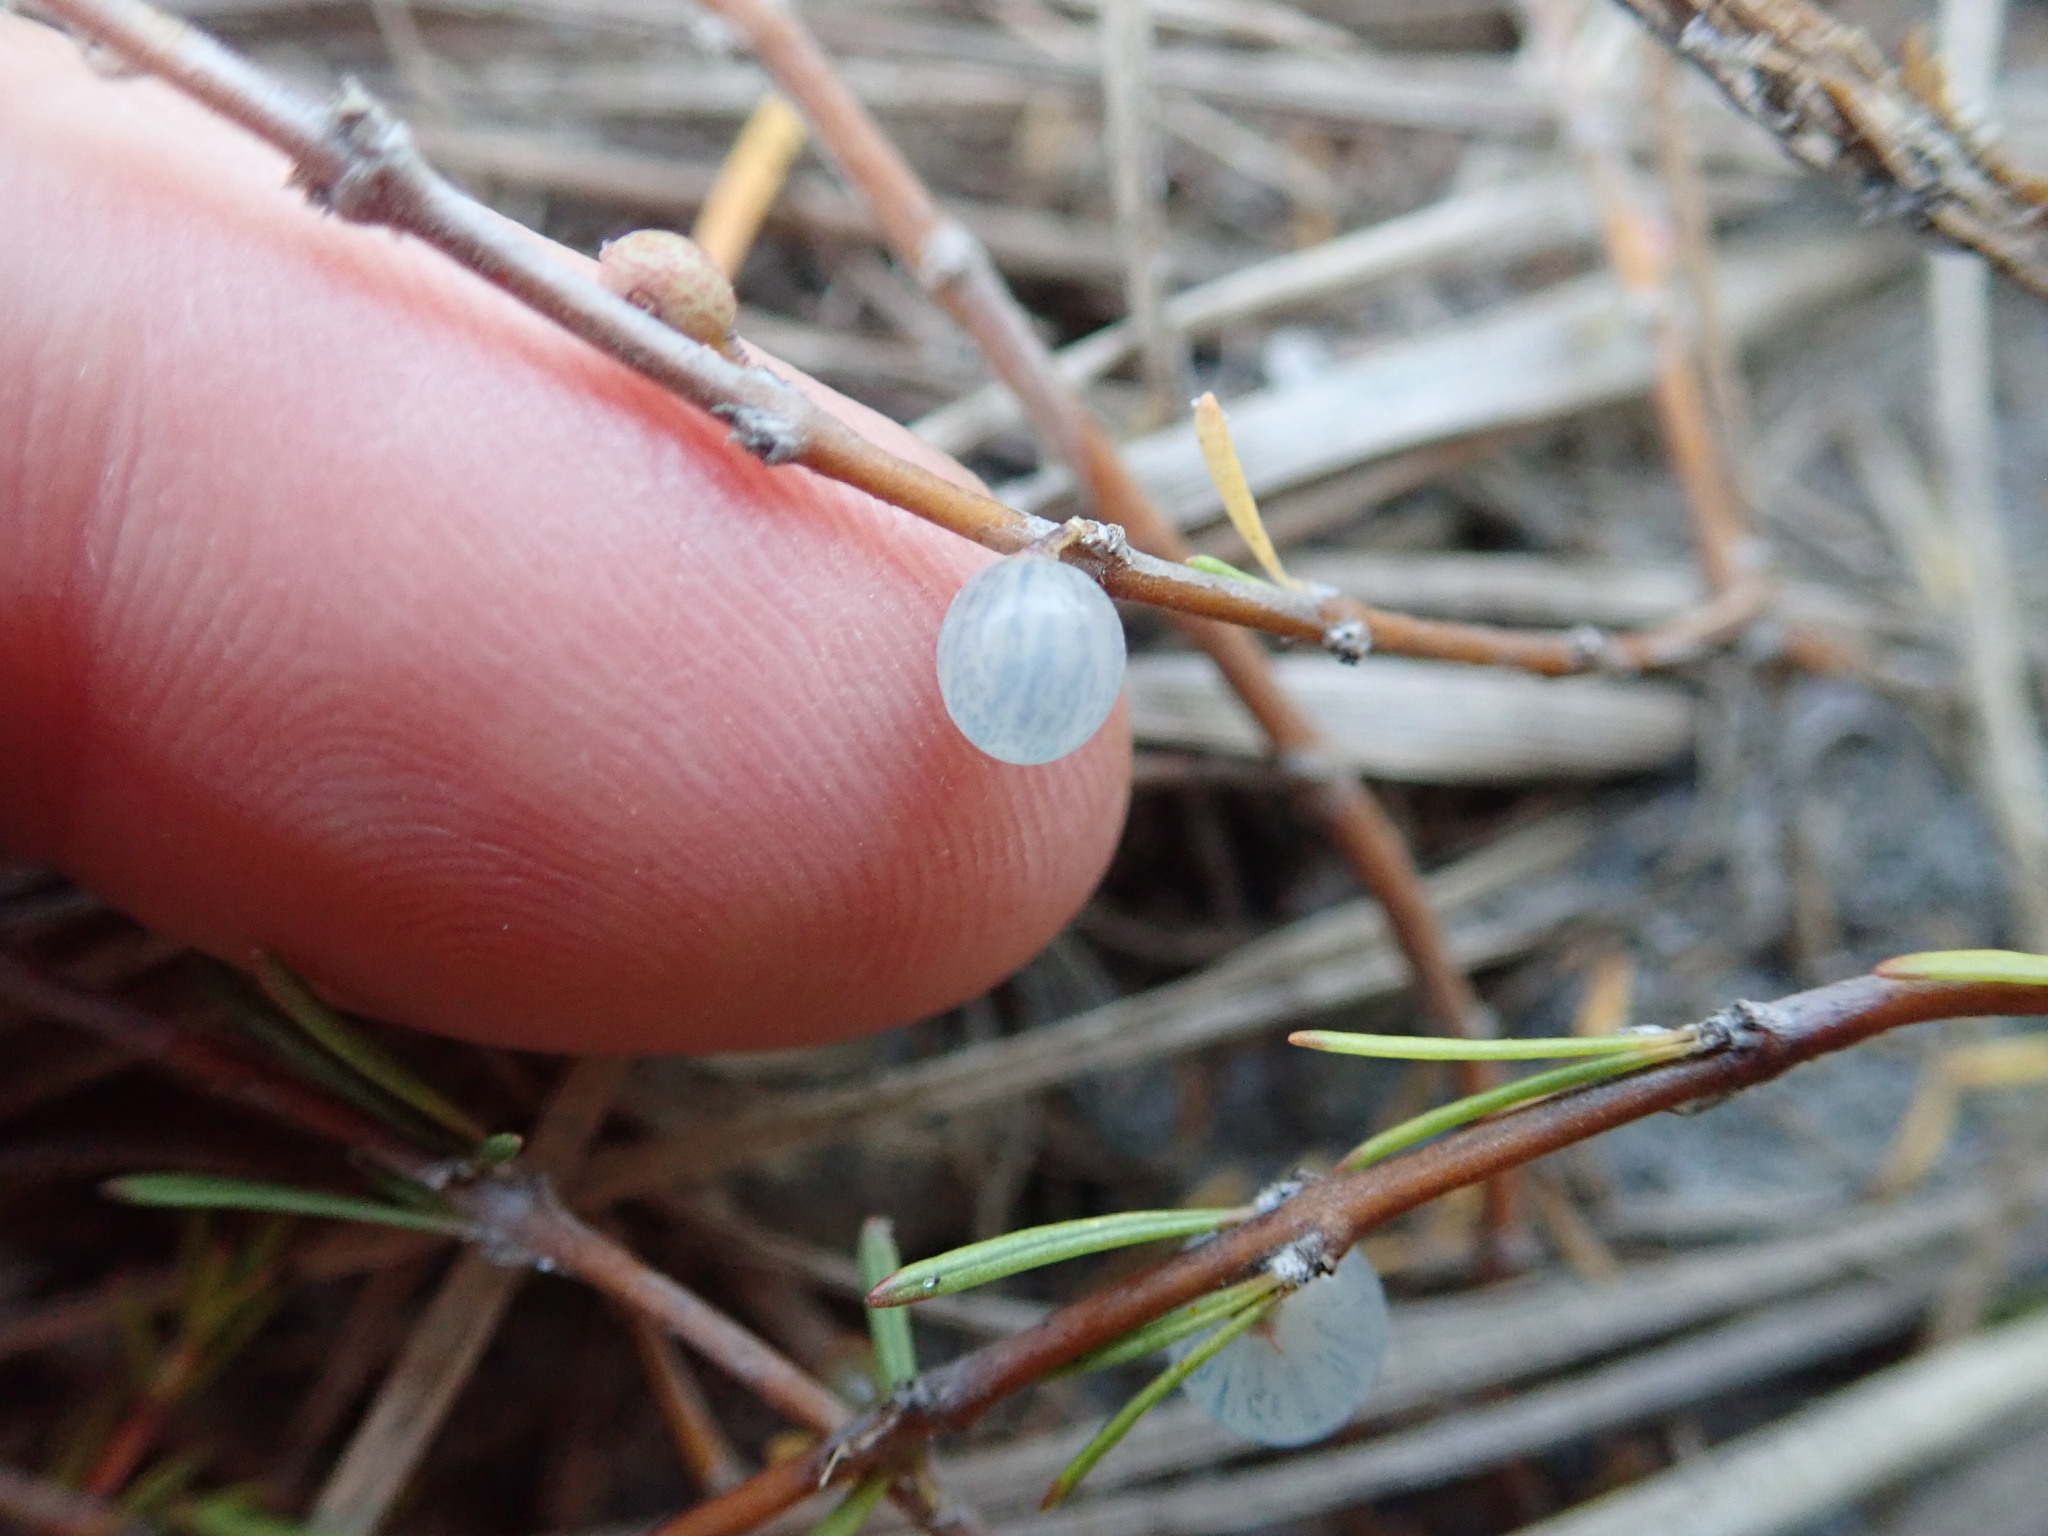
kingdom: Plantae
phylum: Tracheophyta
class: Magnoliopsida
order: Gentianales
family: Rubiaceae
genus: Coprosma
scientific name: Coprosma acerosa
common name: Sand coprosma
